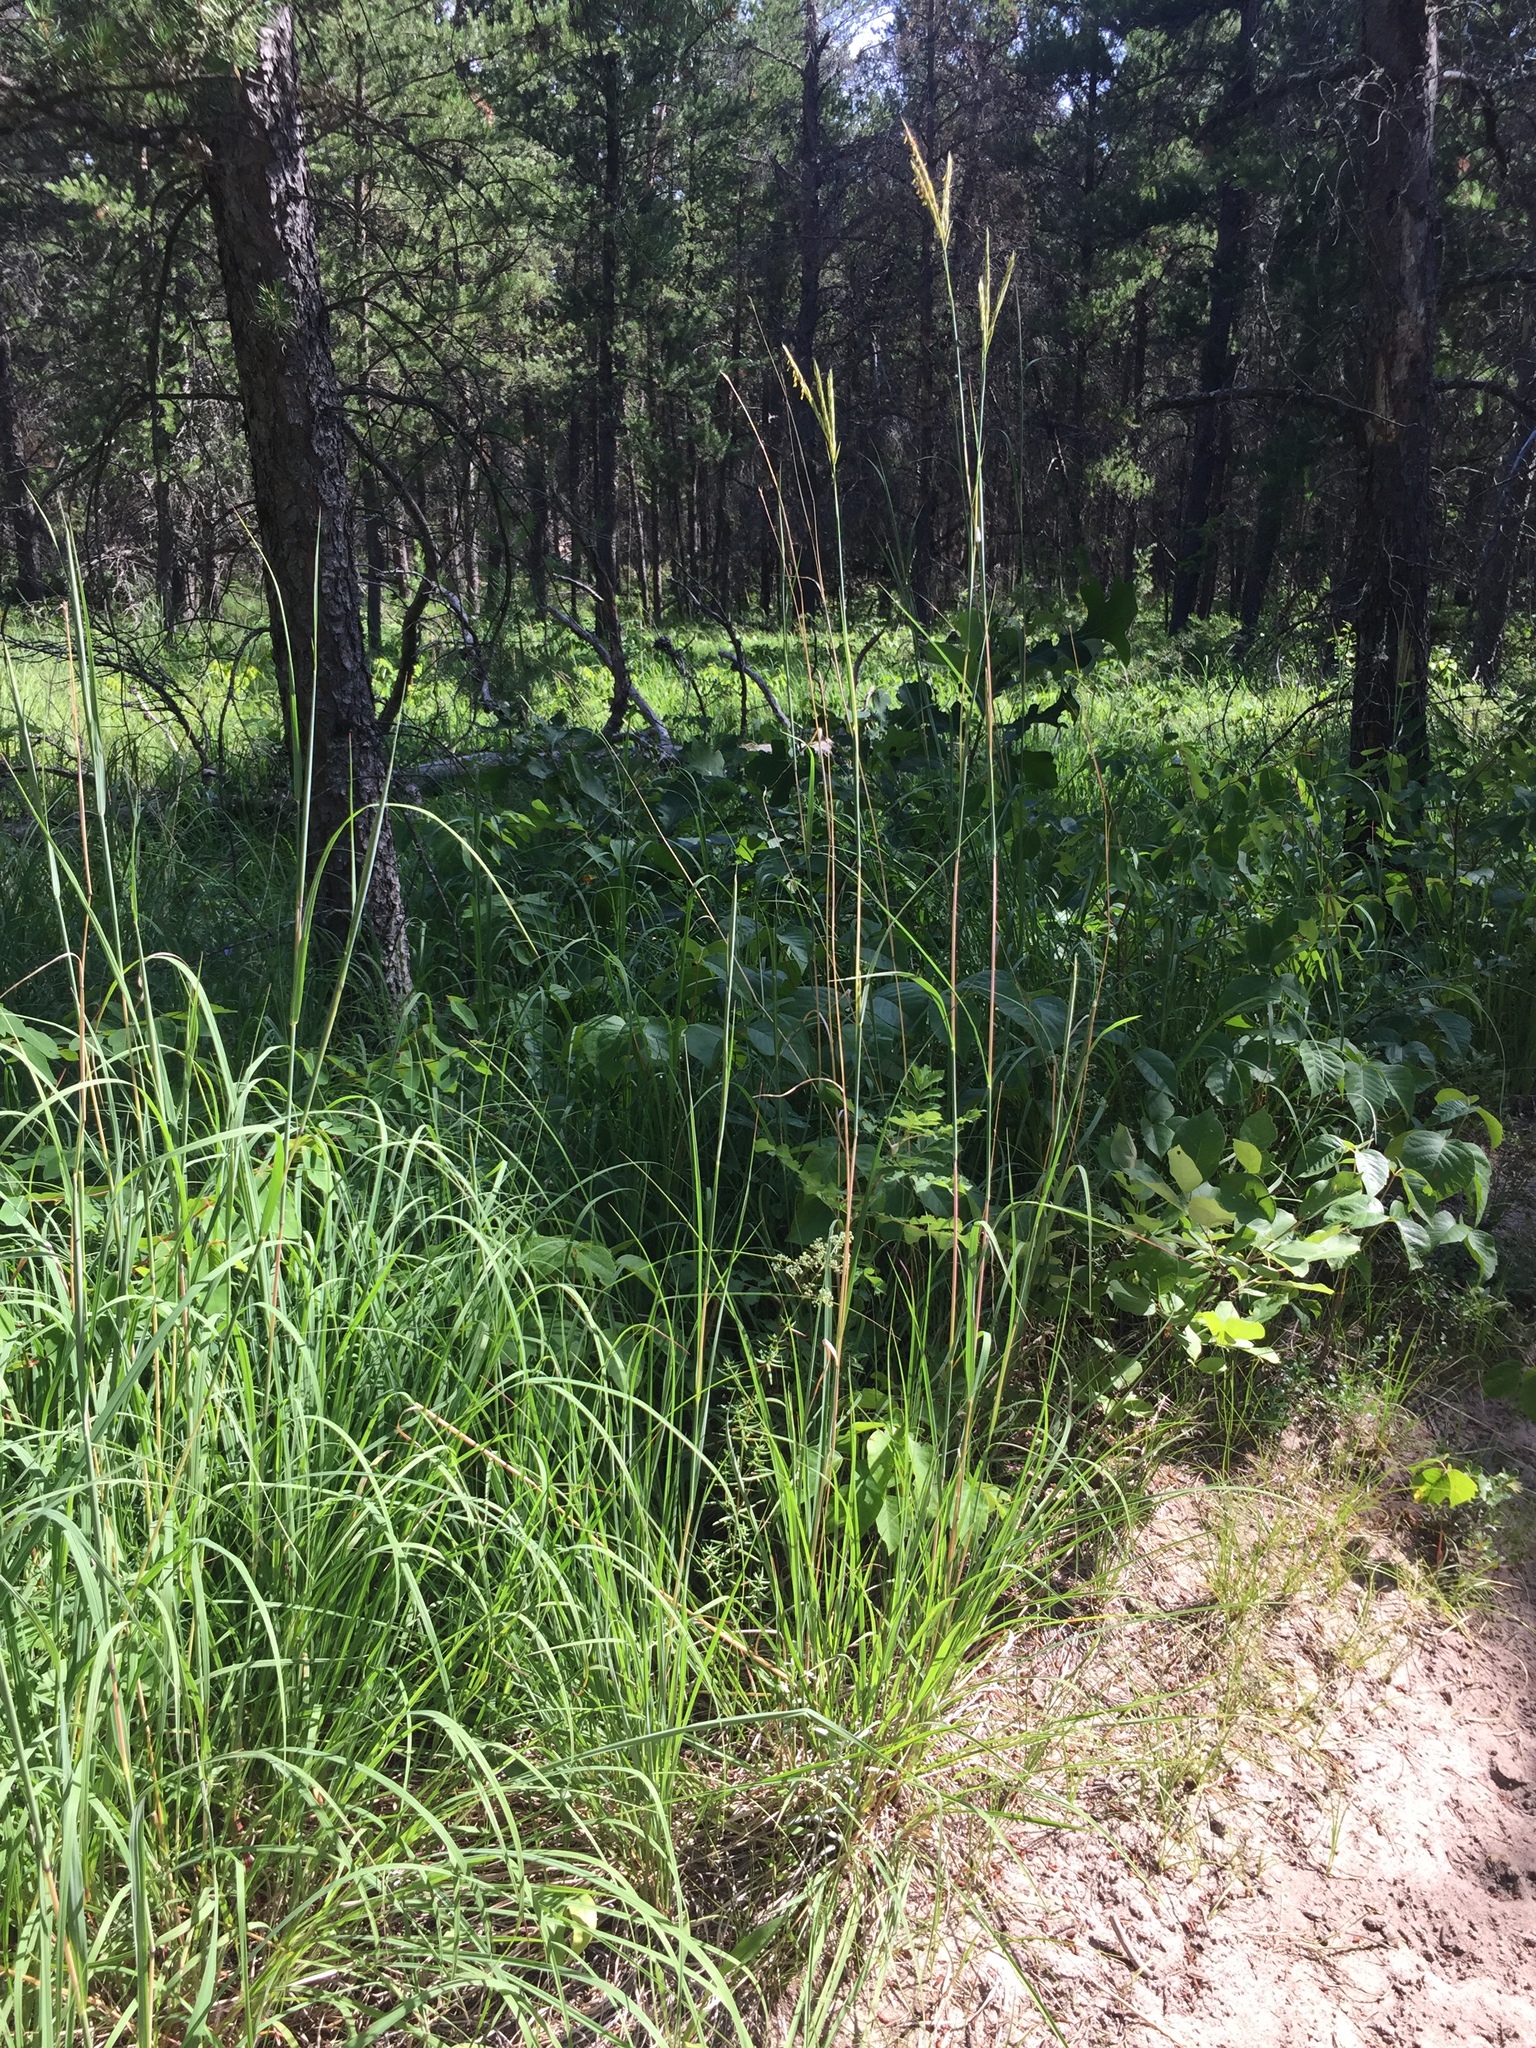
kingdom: Plantae
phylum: Tracheophyta
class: Liliopsida
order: Poales
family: Poaceae
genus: Andropogon
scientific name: Andropogon gerardi
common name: Big bluestem
